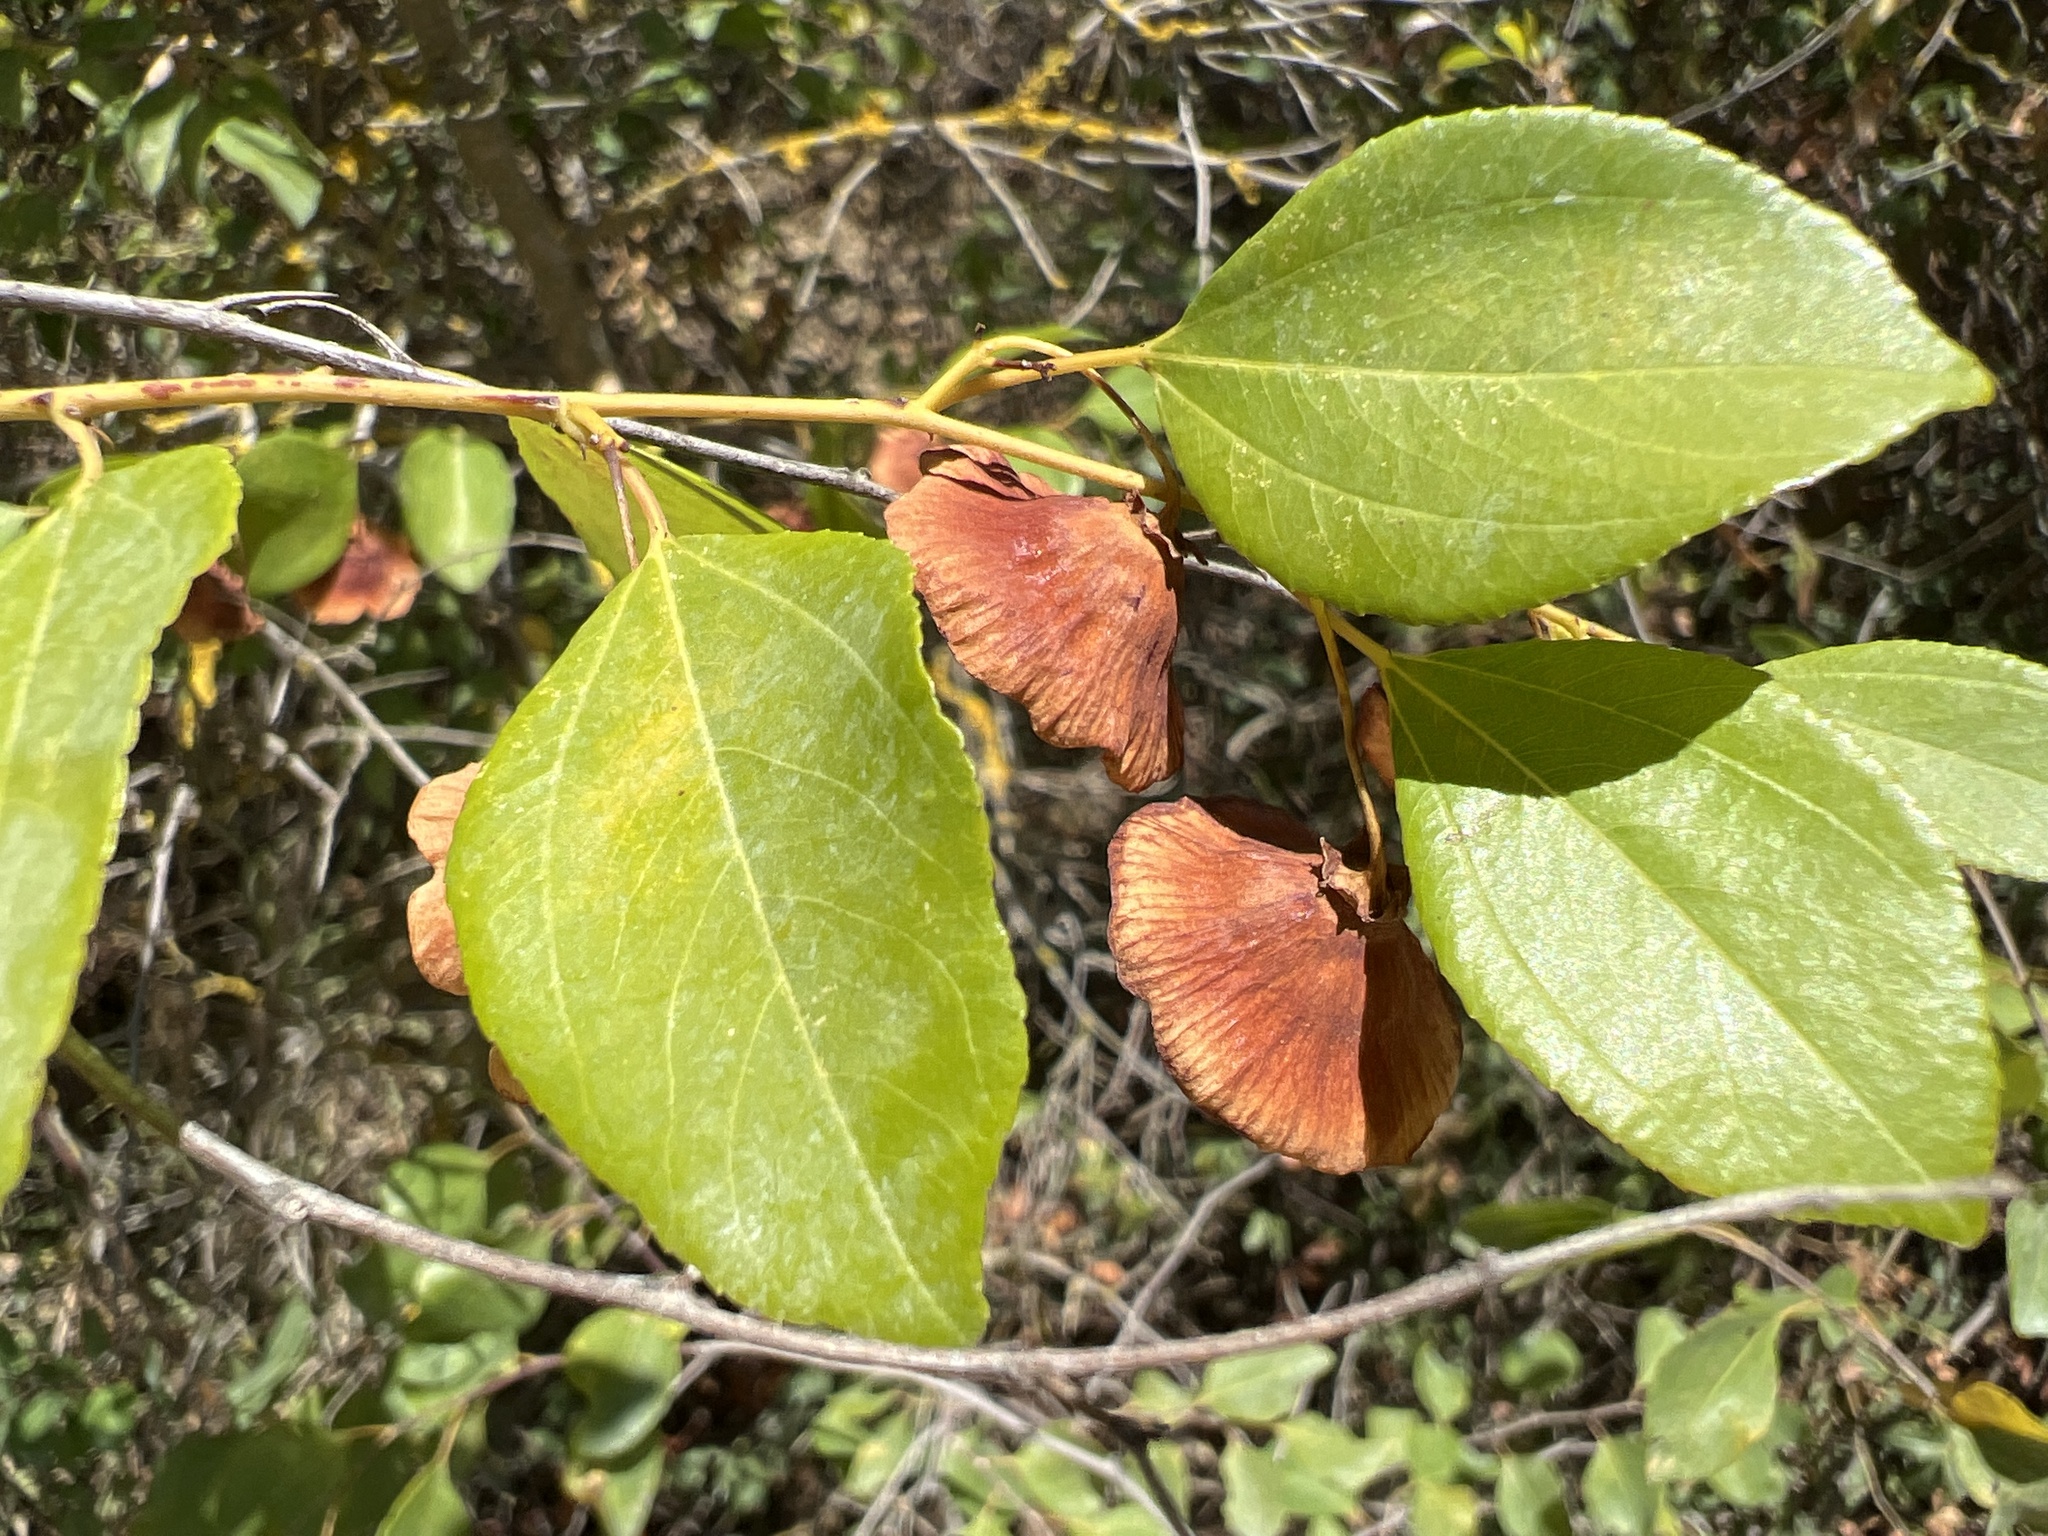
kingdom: Plantae
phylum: Tracheophyta
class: Magnoliopsida
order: Rosales
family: Rhamnaceae
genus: Paliurus
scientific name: Paliurus spina-christi
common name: Jeruselem thorn
